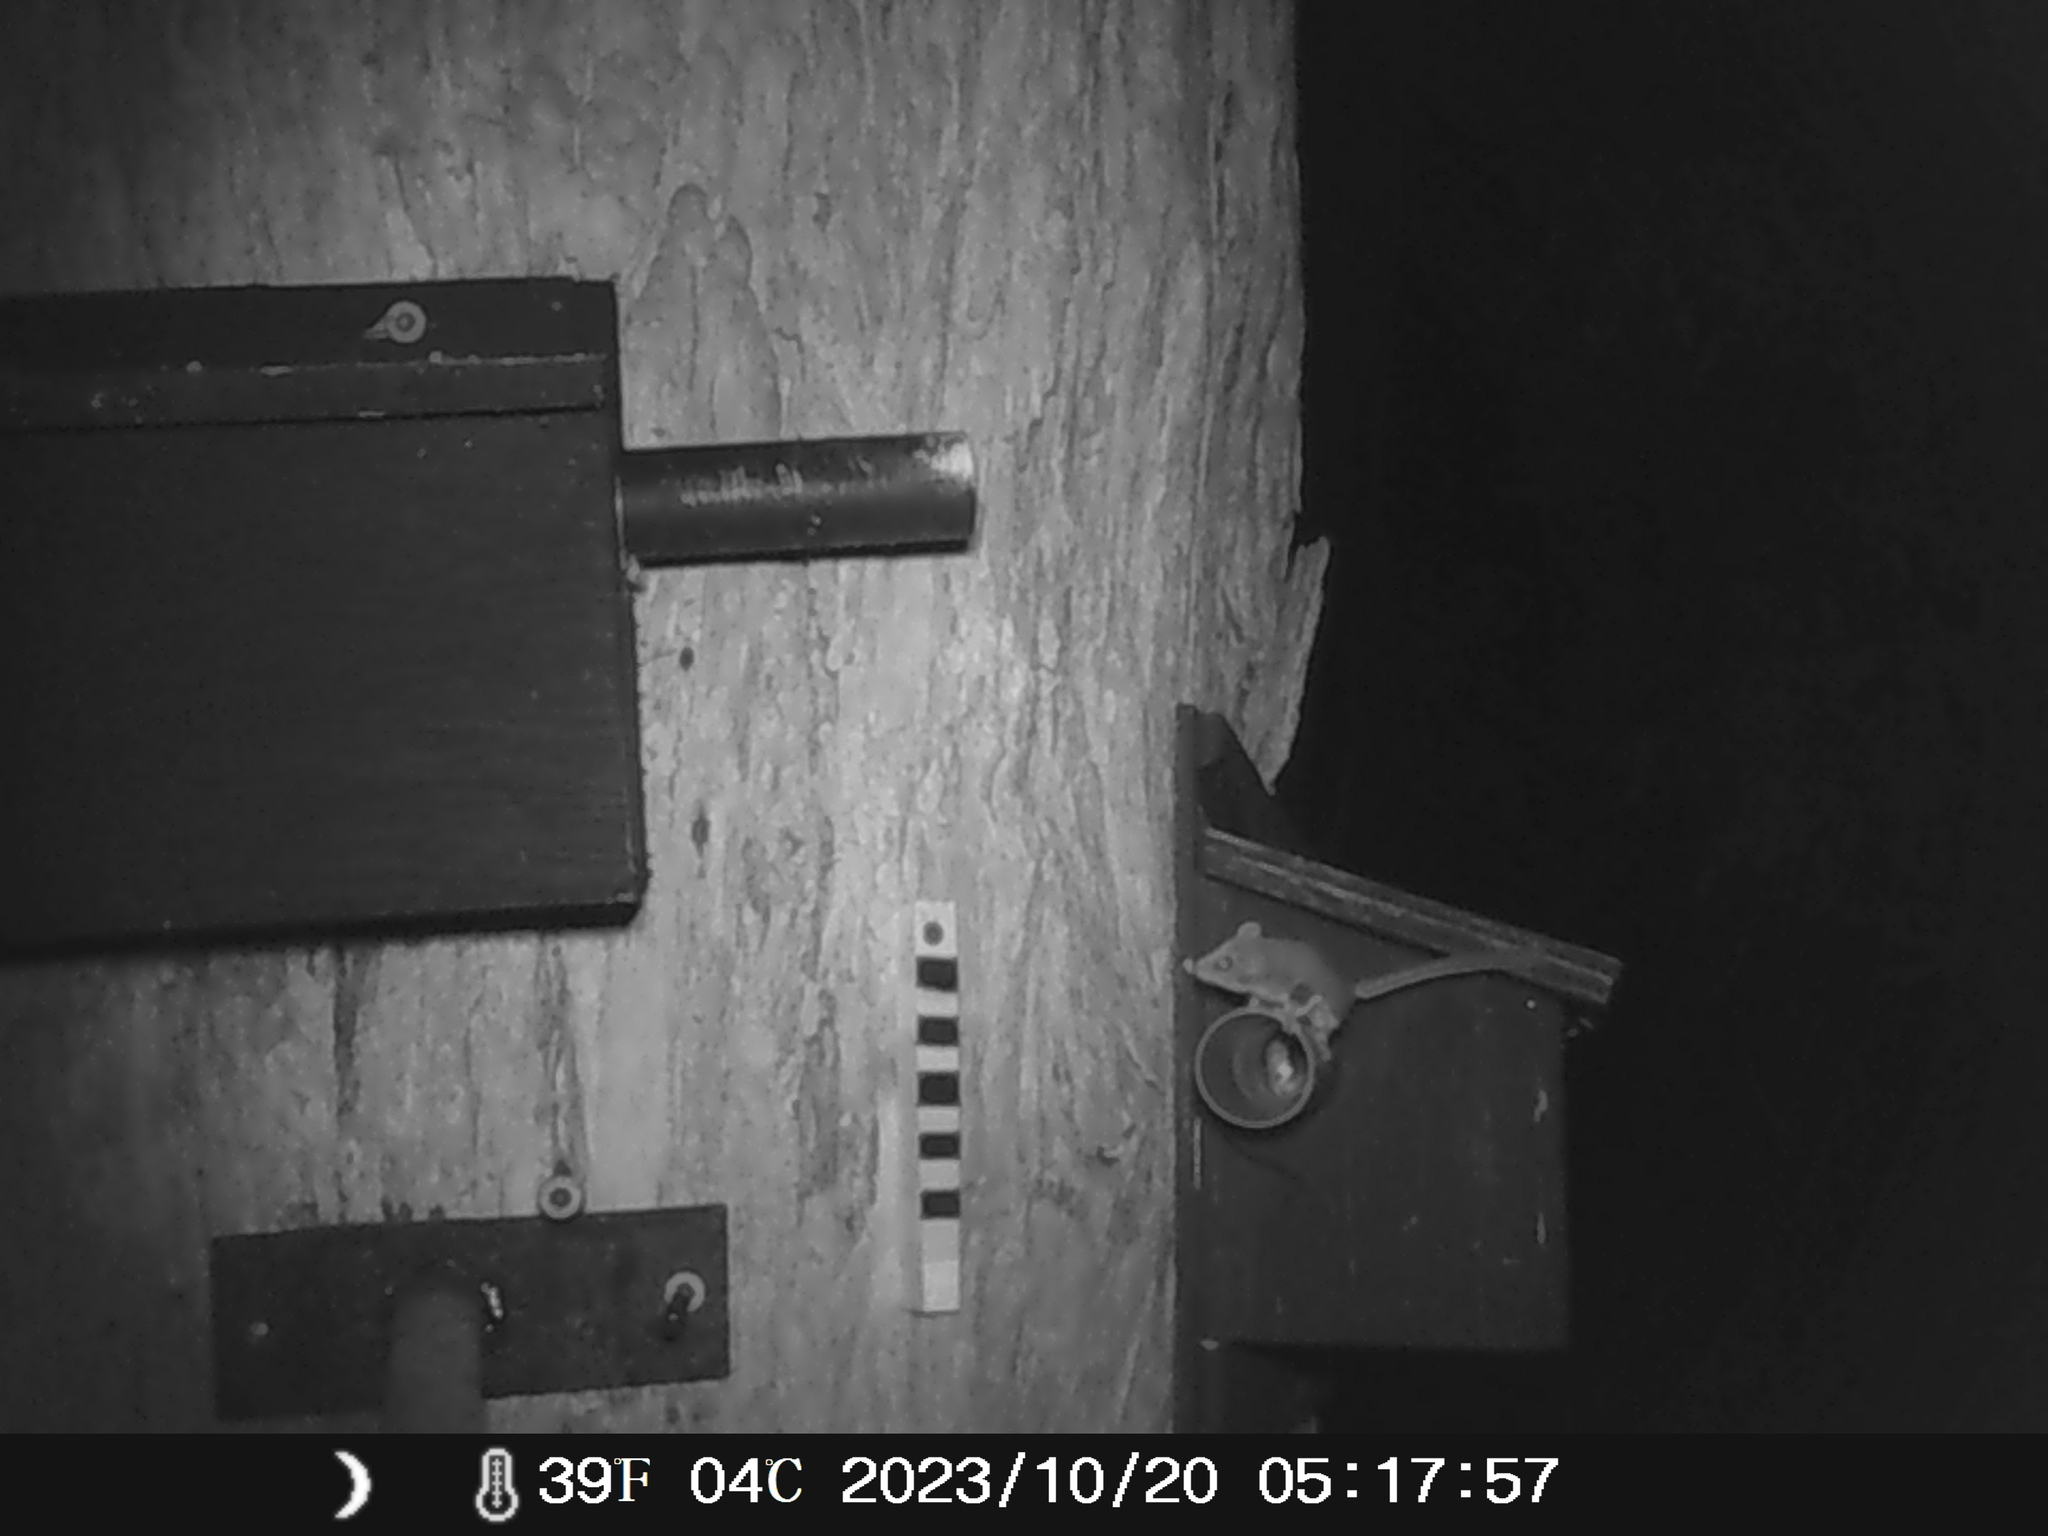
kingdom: Animalia
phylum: Chordata
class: Mammalia
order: Diprotodontia
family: Acrobatidae
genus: Acrobates
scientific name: Acrobates pygmaeus
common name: Feathertail glider
